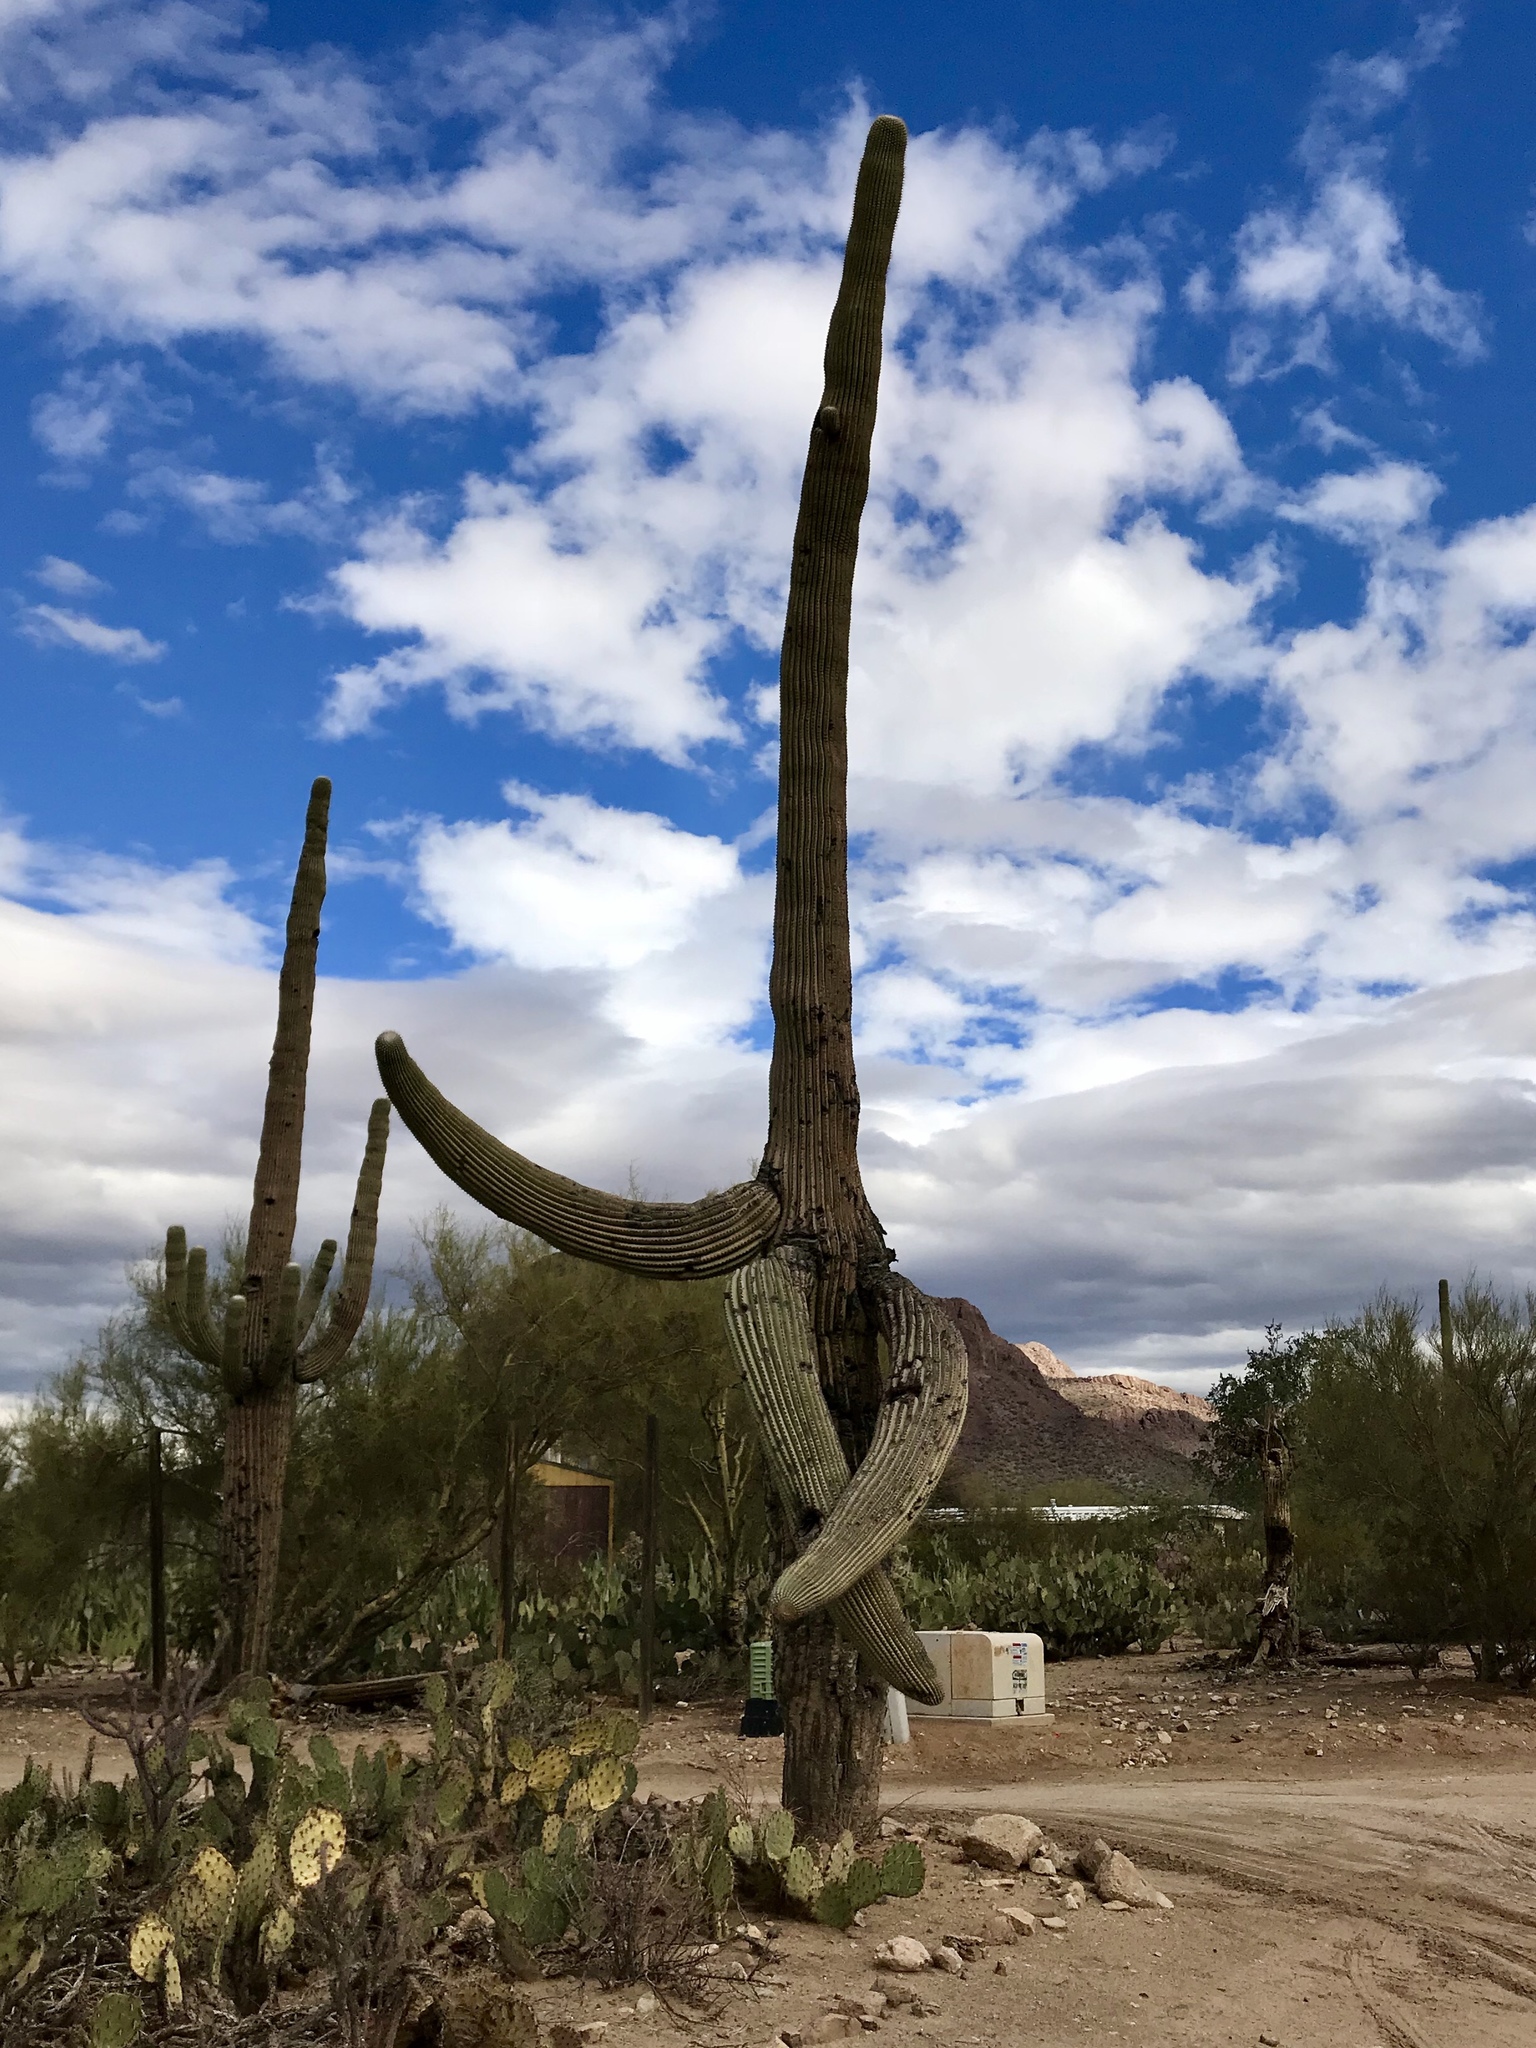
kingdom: Plantae
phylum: Tracheophyta
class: Magnoliopsida
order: Caryophyllales
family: Cactaceae
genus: Carnegiea
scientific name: Carnegiea gigantea
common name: Saguaro
